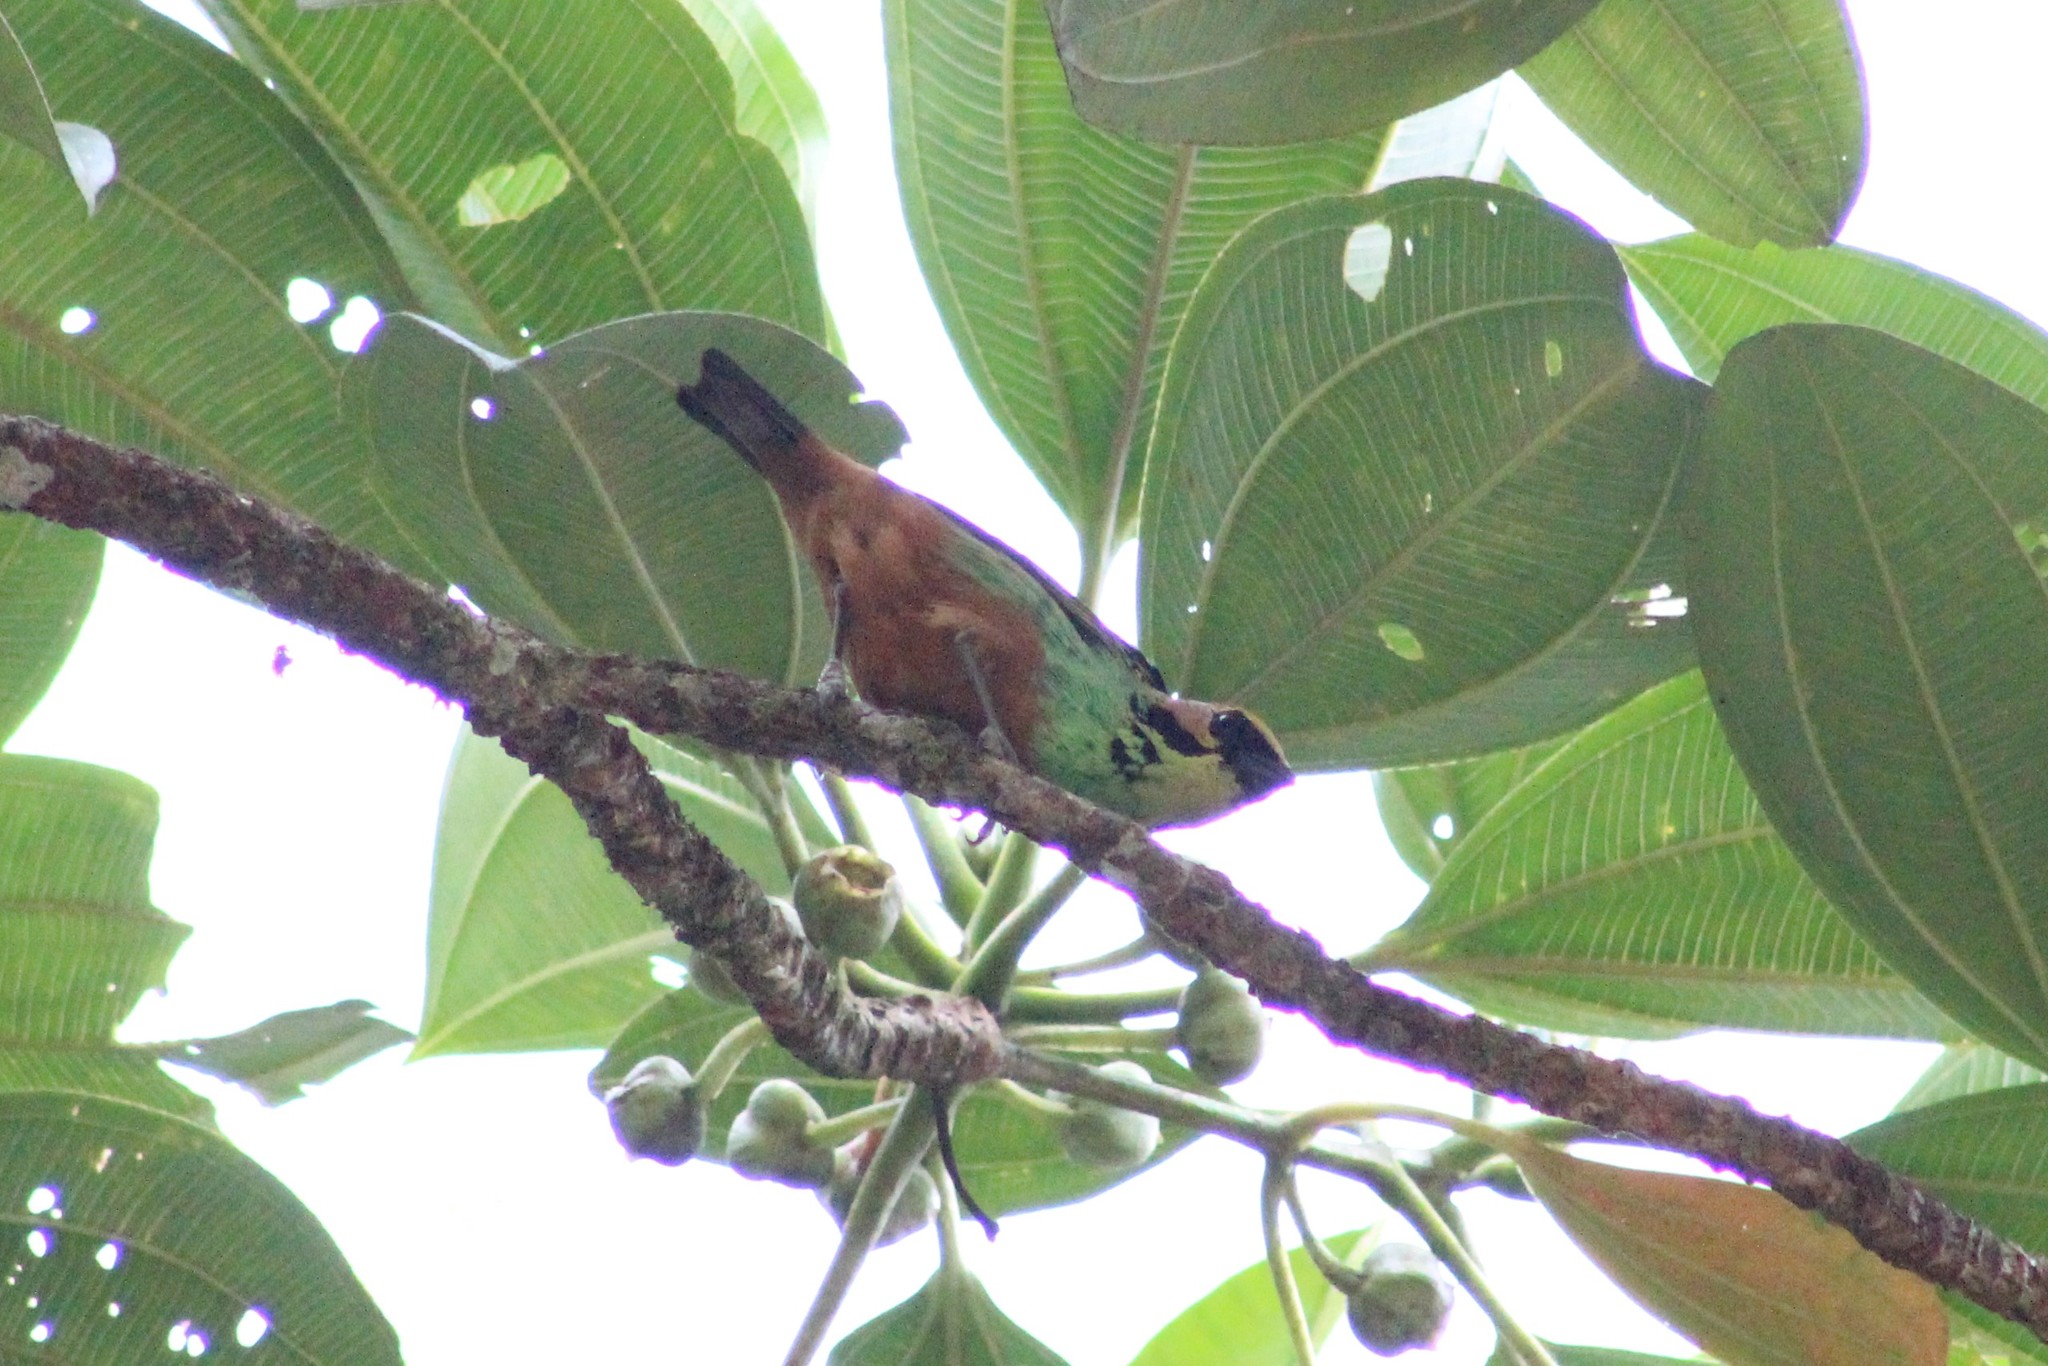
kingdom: Animalia
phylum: Chordata
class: Aves
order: Passeriformes
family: Thraupidae
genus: Tangara
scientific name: Tangara chrysotis
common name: Golden-eared tanager
